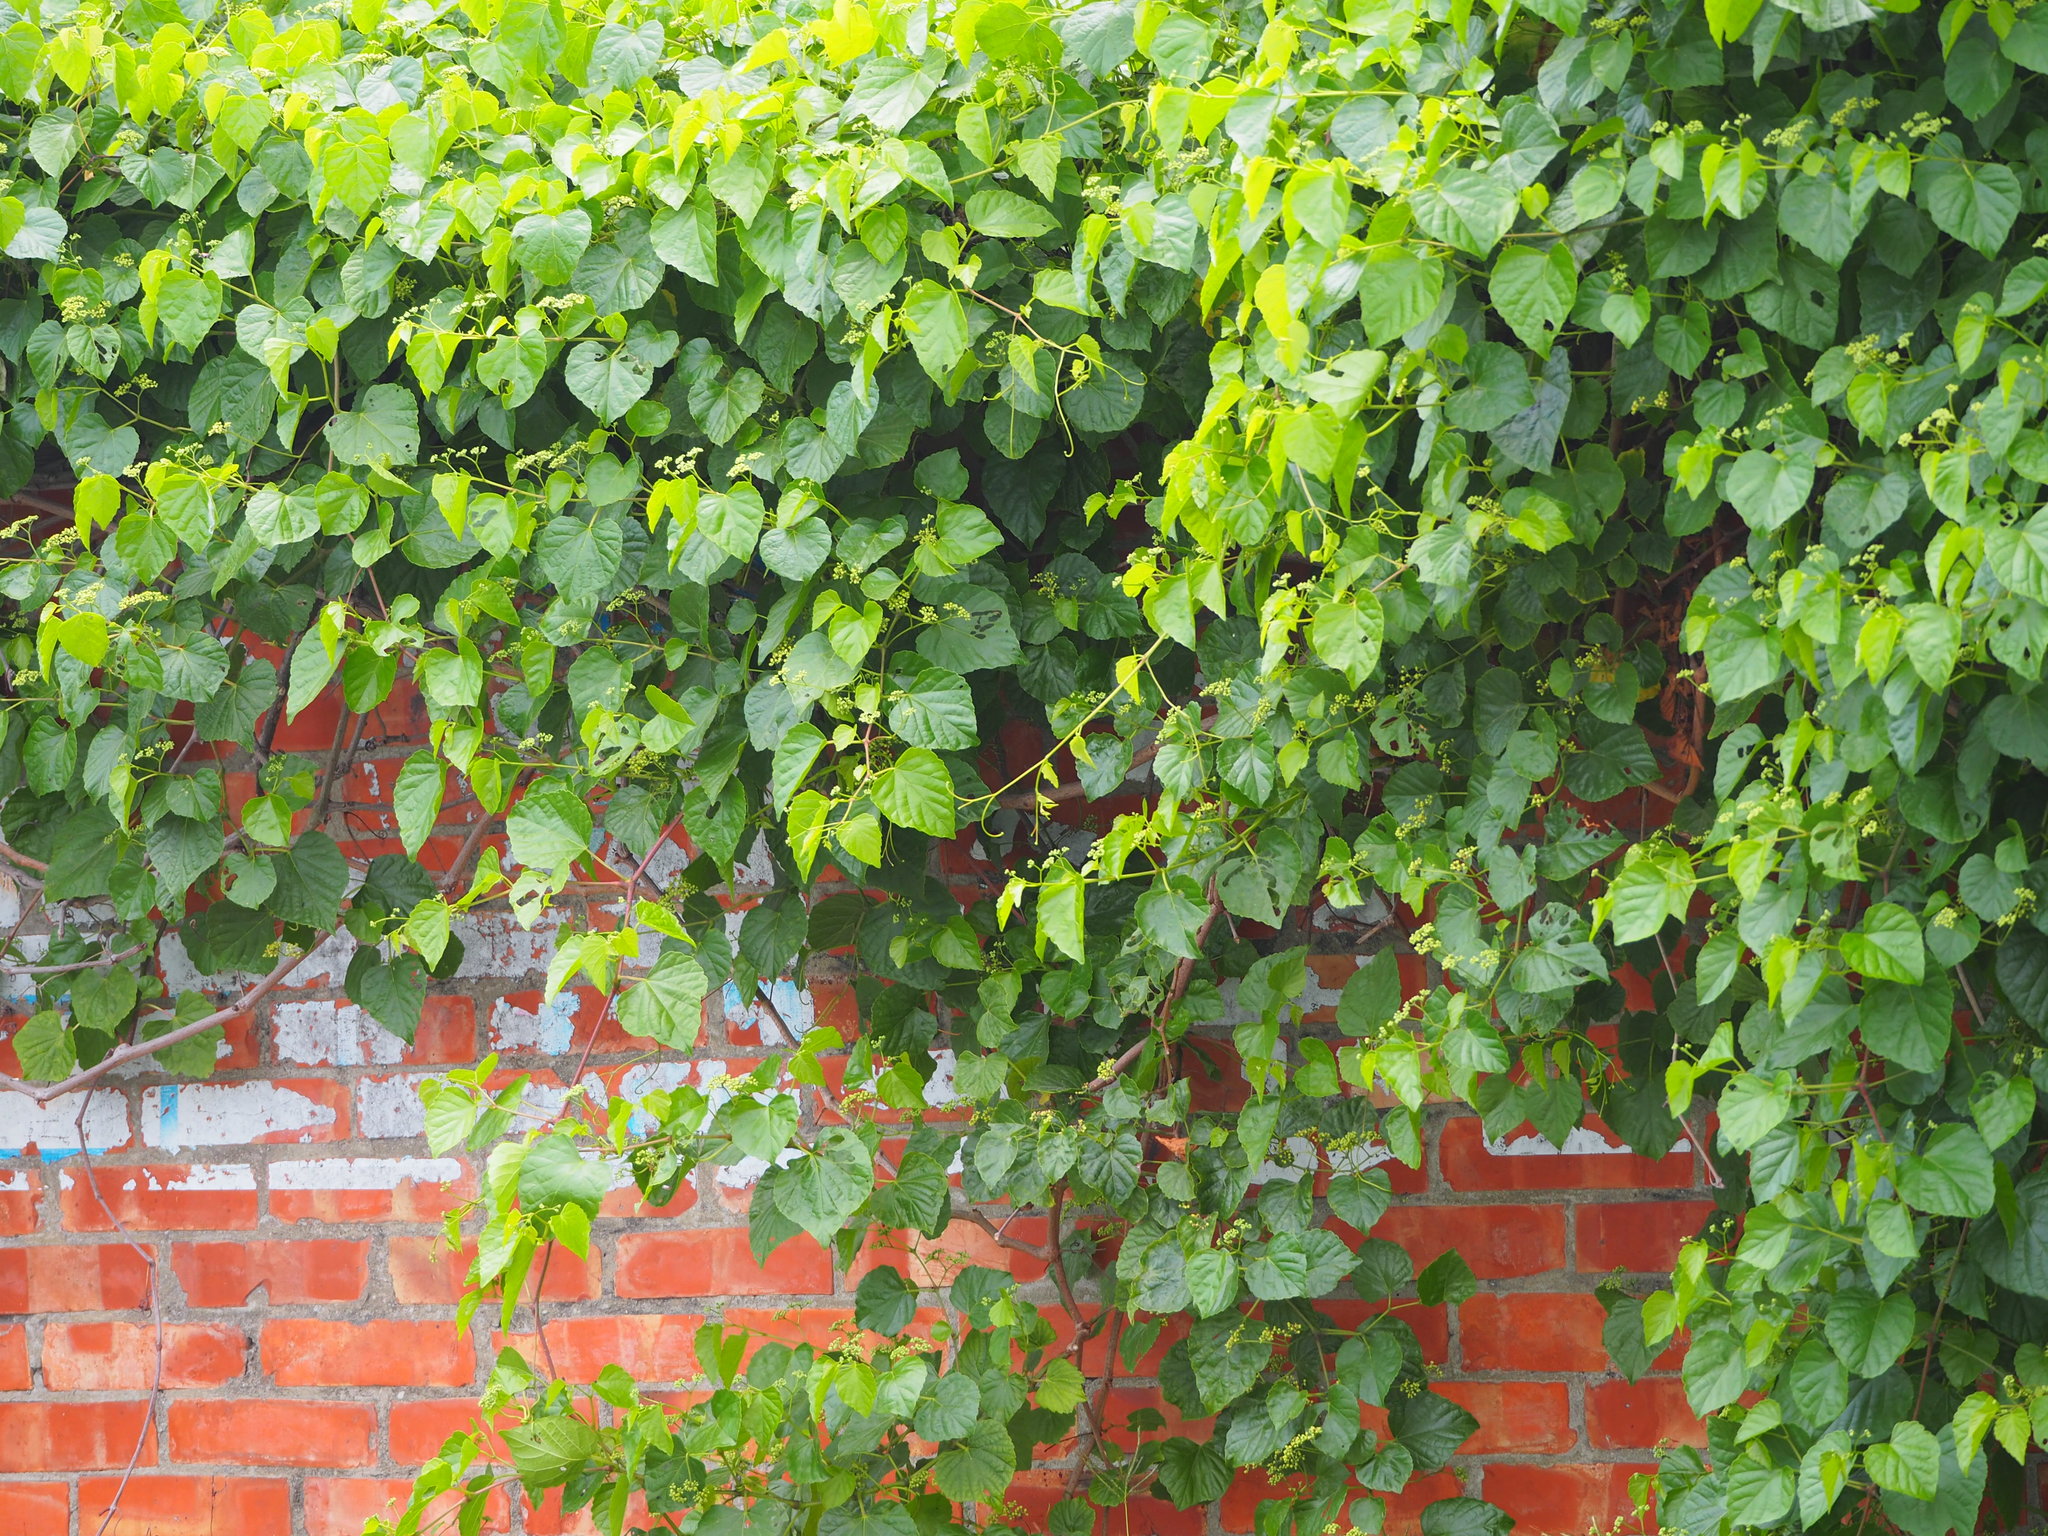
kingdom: Plantae
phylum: Tracheophyta
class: Magnoliopsida
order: Vitales
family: Vitaceae
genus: Ampelopsis
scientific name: Ampelopsis glandulosa
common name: Amur peppervine
